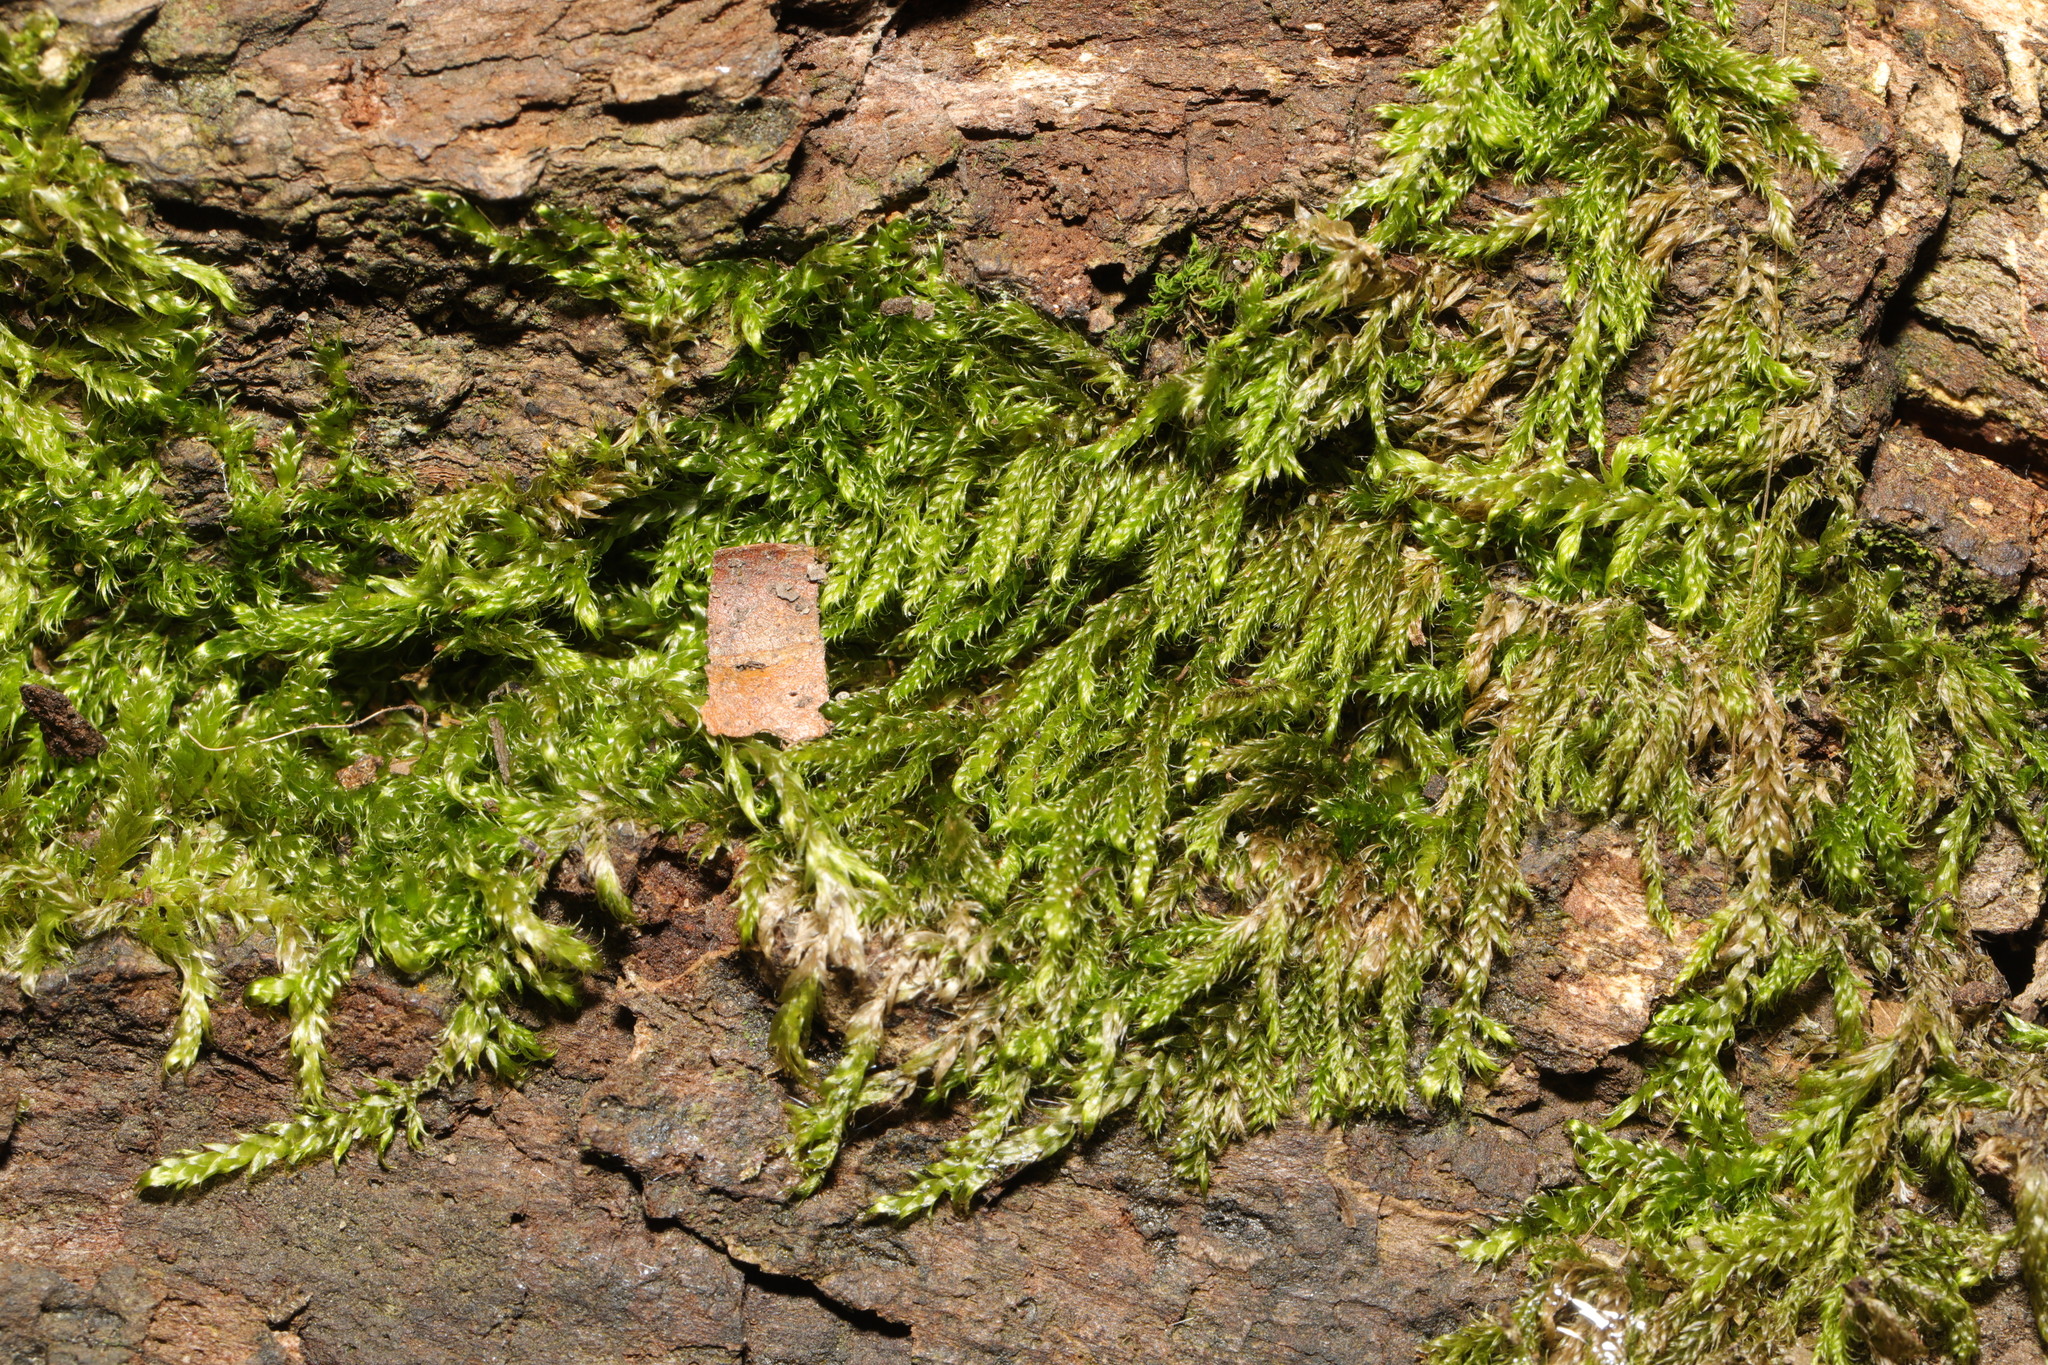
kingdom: Plantae
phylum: Bryophyta
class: Bryopsida
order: Hypnales
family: Hypnaceae
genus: Hypnum
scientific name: Hypnum cupressiforme
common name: Cypress-leaved plait-moss
